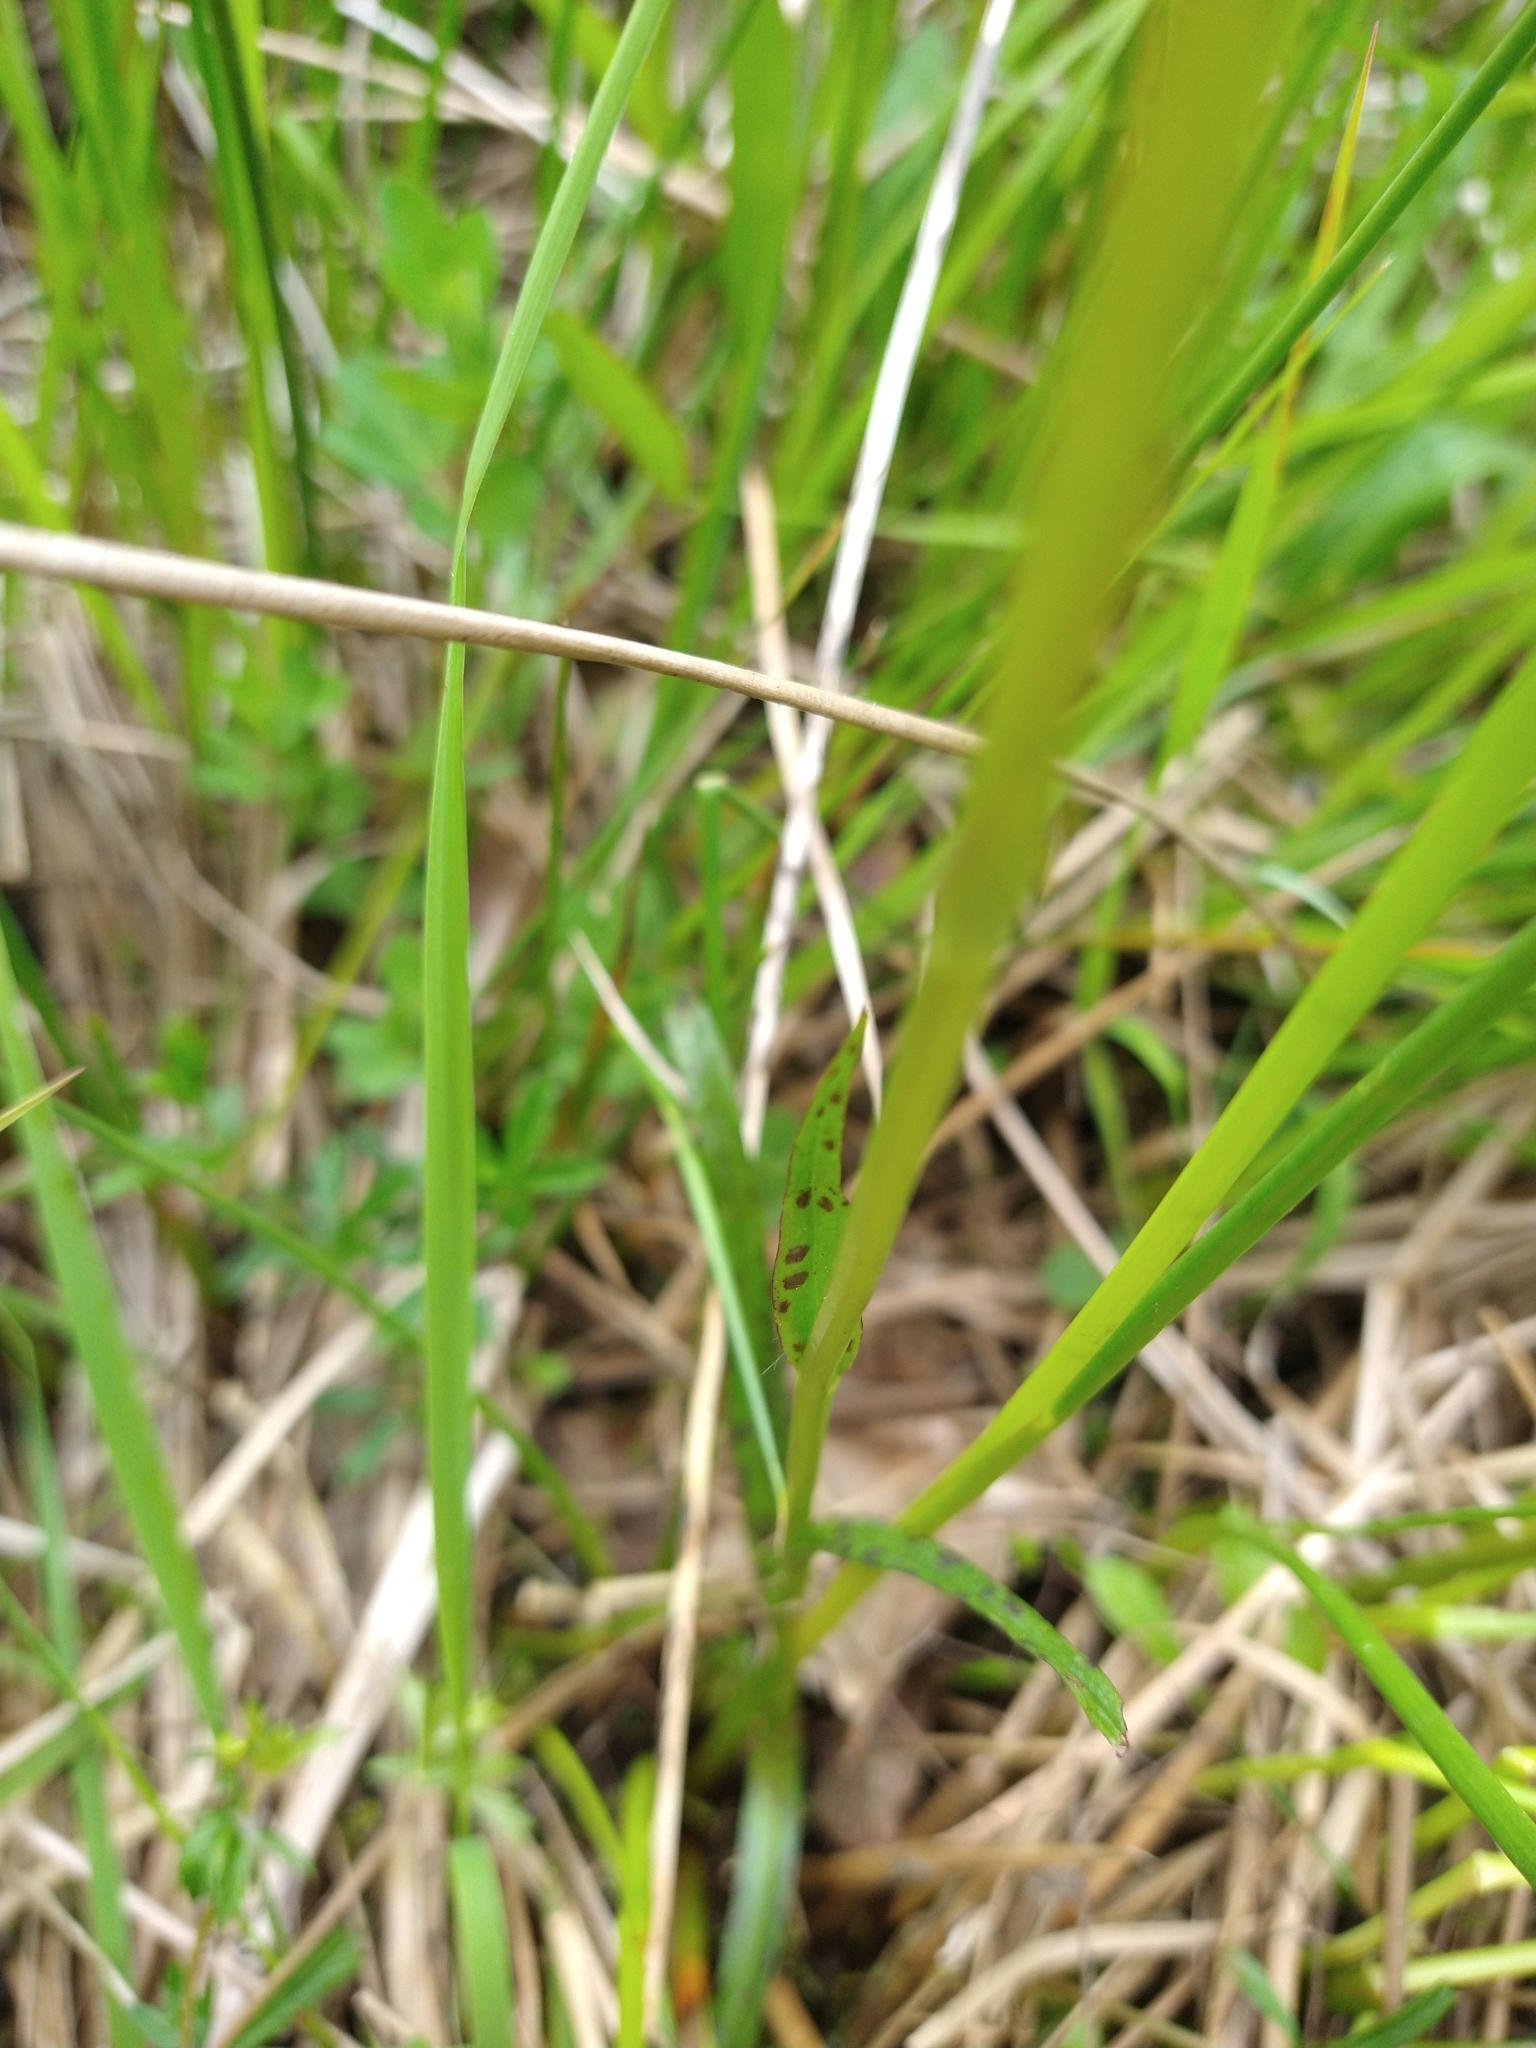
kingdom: Plantae
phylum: Tracheophyta
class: Liliopsida
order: Asparagales
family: Orchidaceae
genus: Dactylorhiza
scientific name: Dactylorhiza maculata
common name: Heath spotted-orchid
